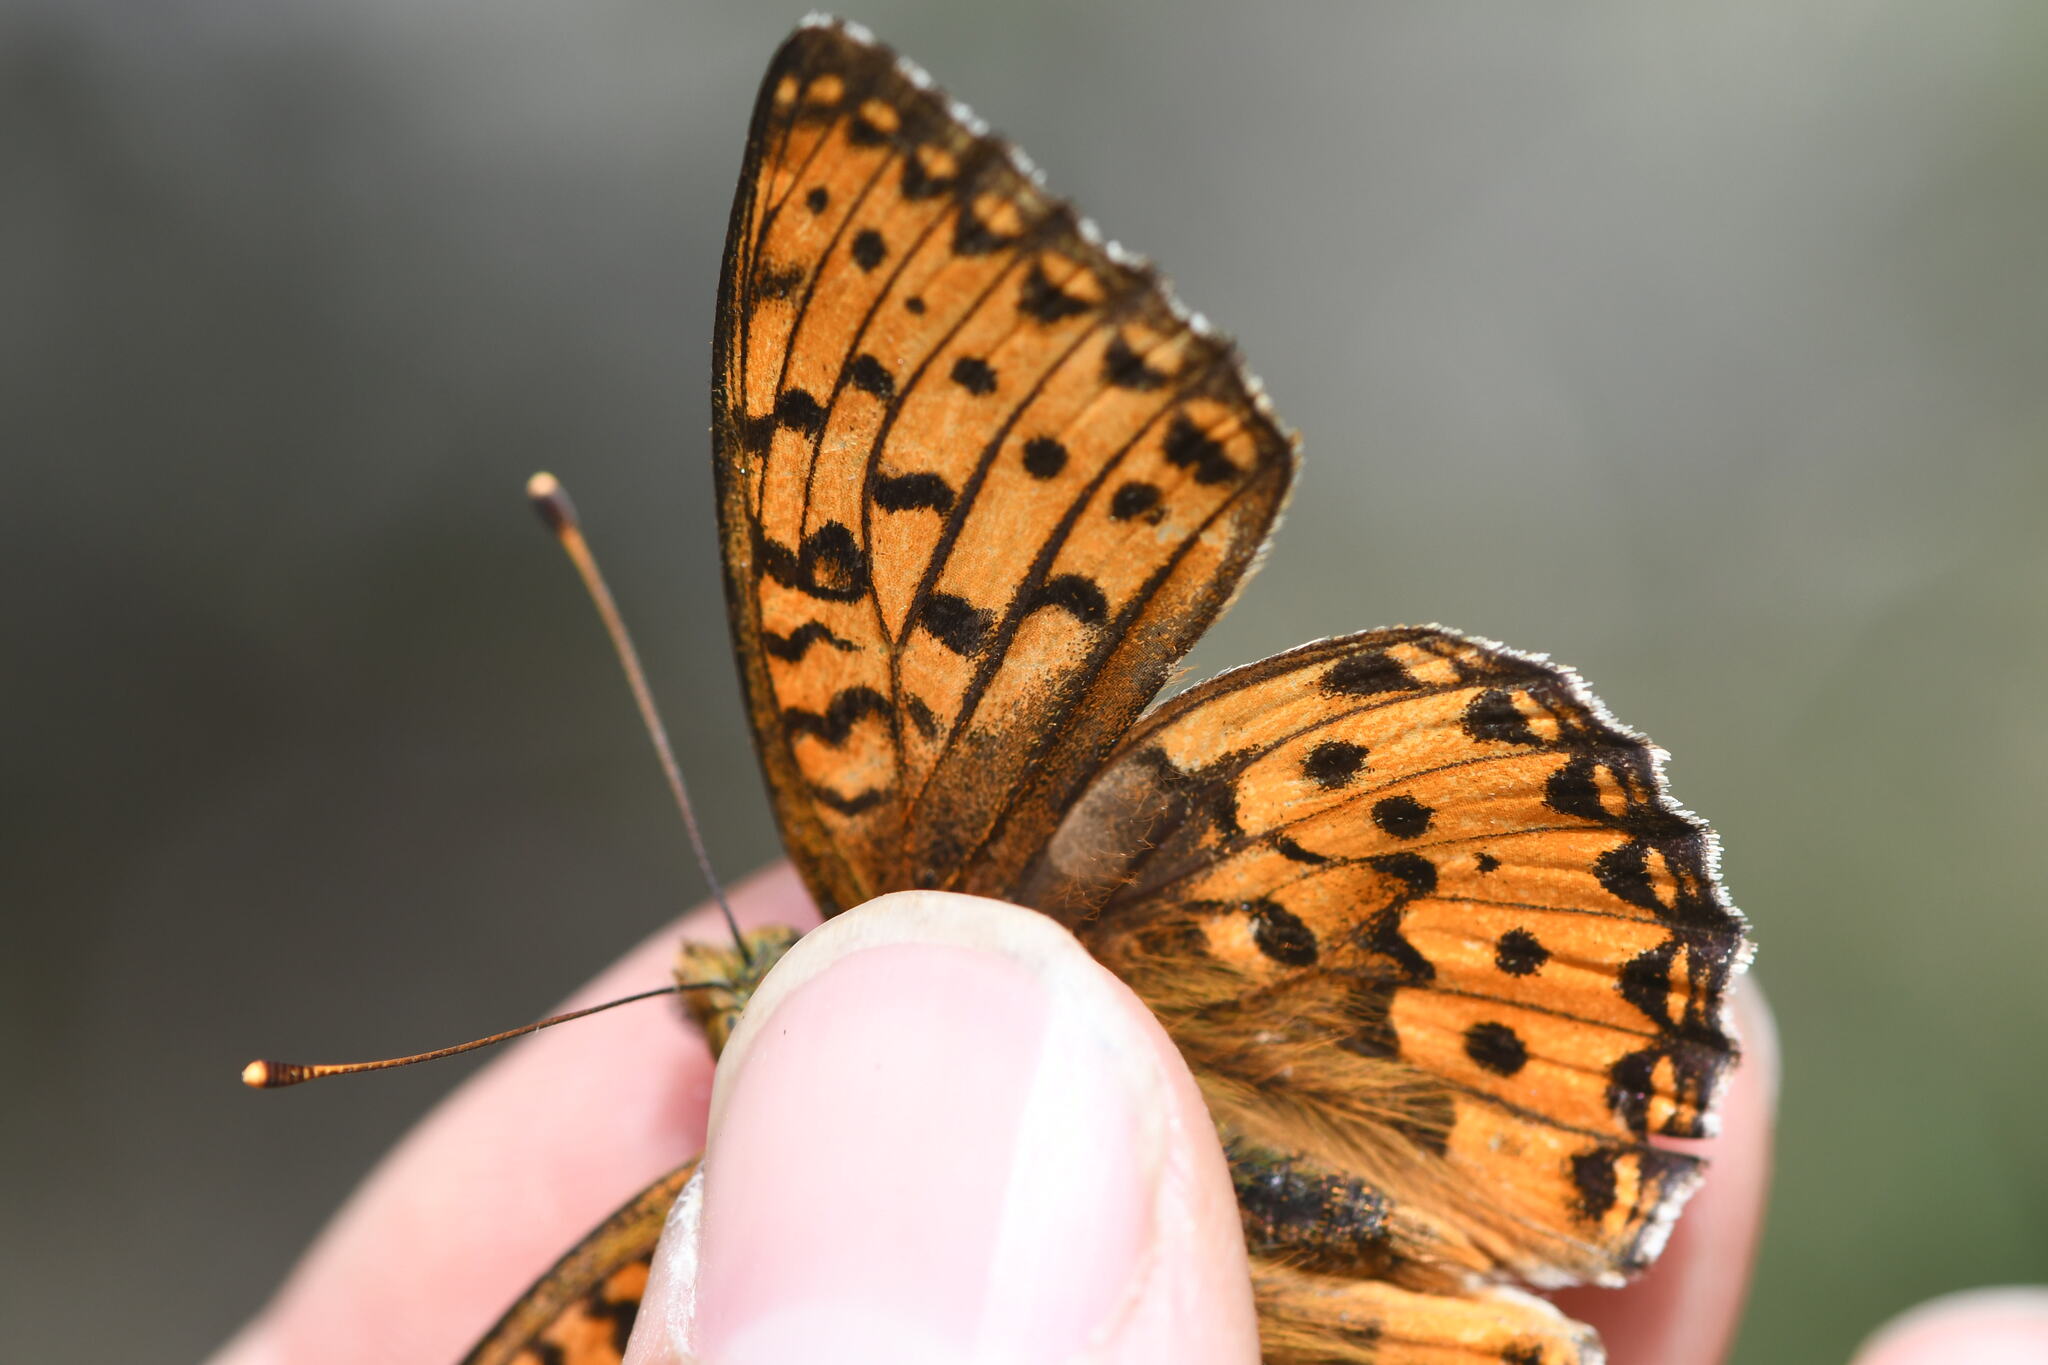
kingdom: Animalia
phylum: Arthropoda
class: Insecta
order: Lepidoptera
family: Nymphalidae
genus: Speyeria
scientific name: Speyeria aglaja
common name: Dark green fritillary
